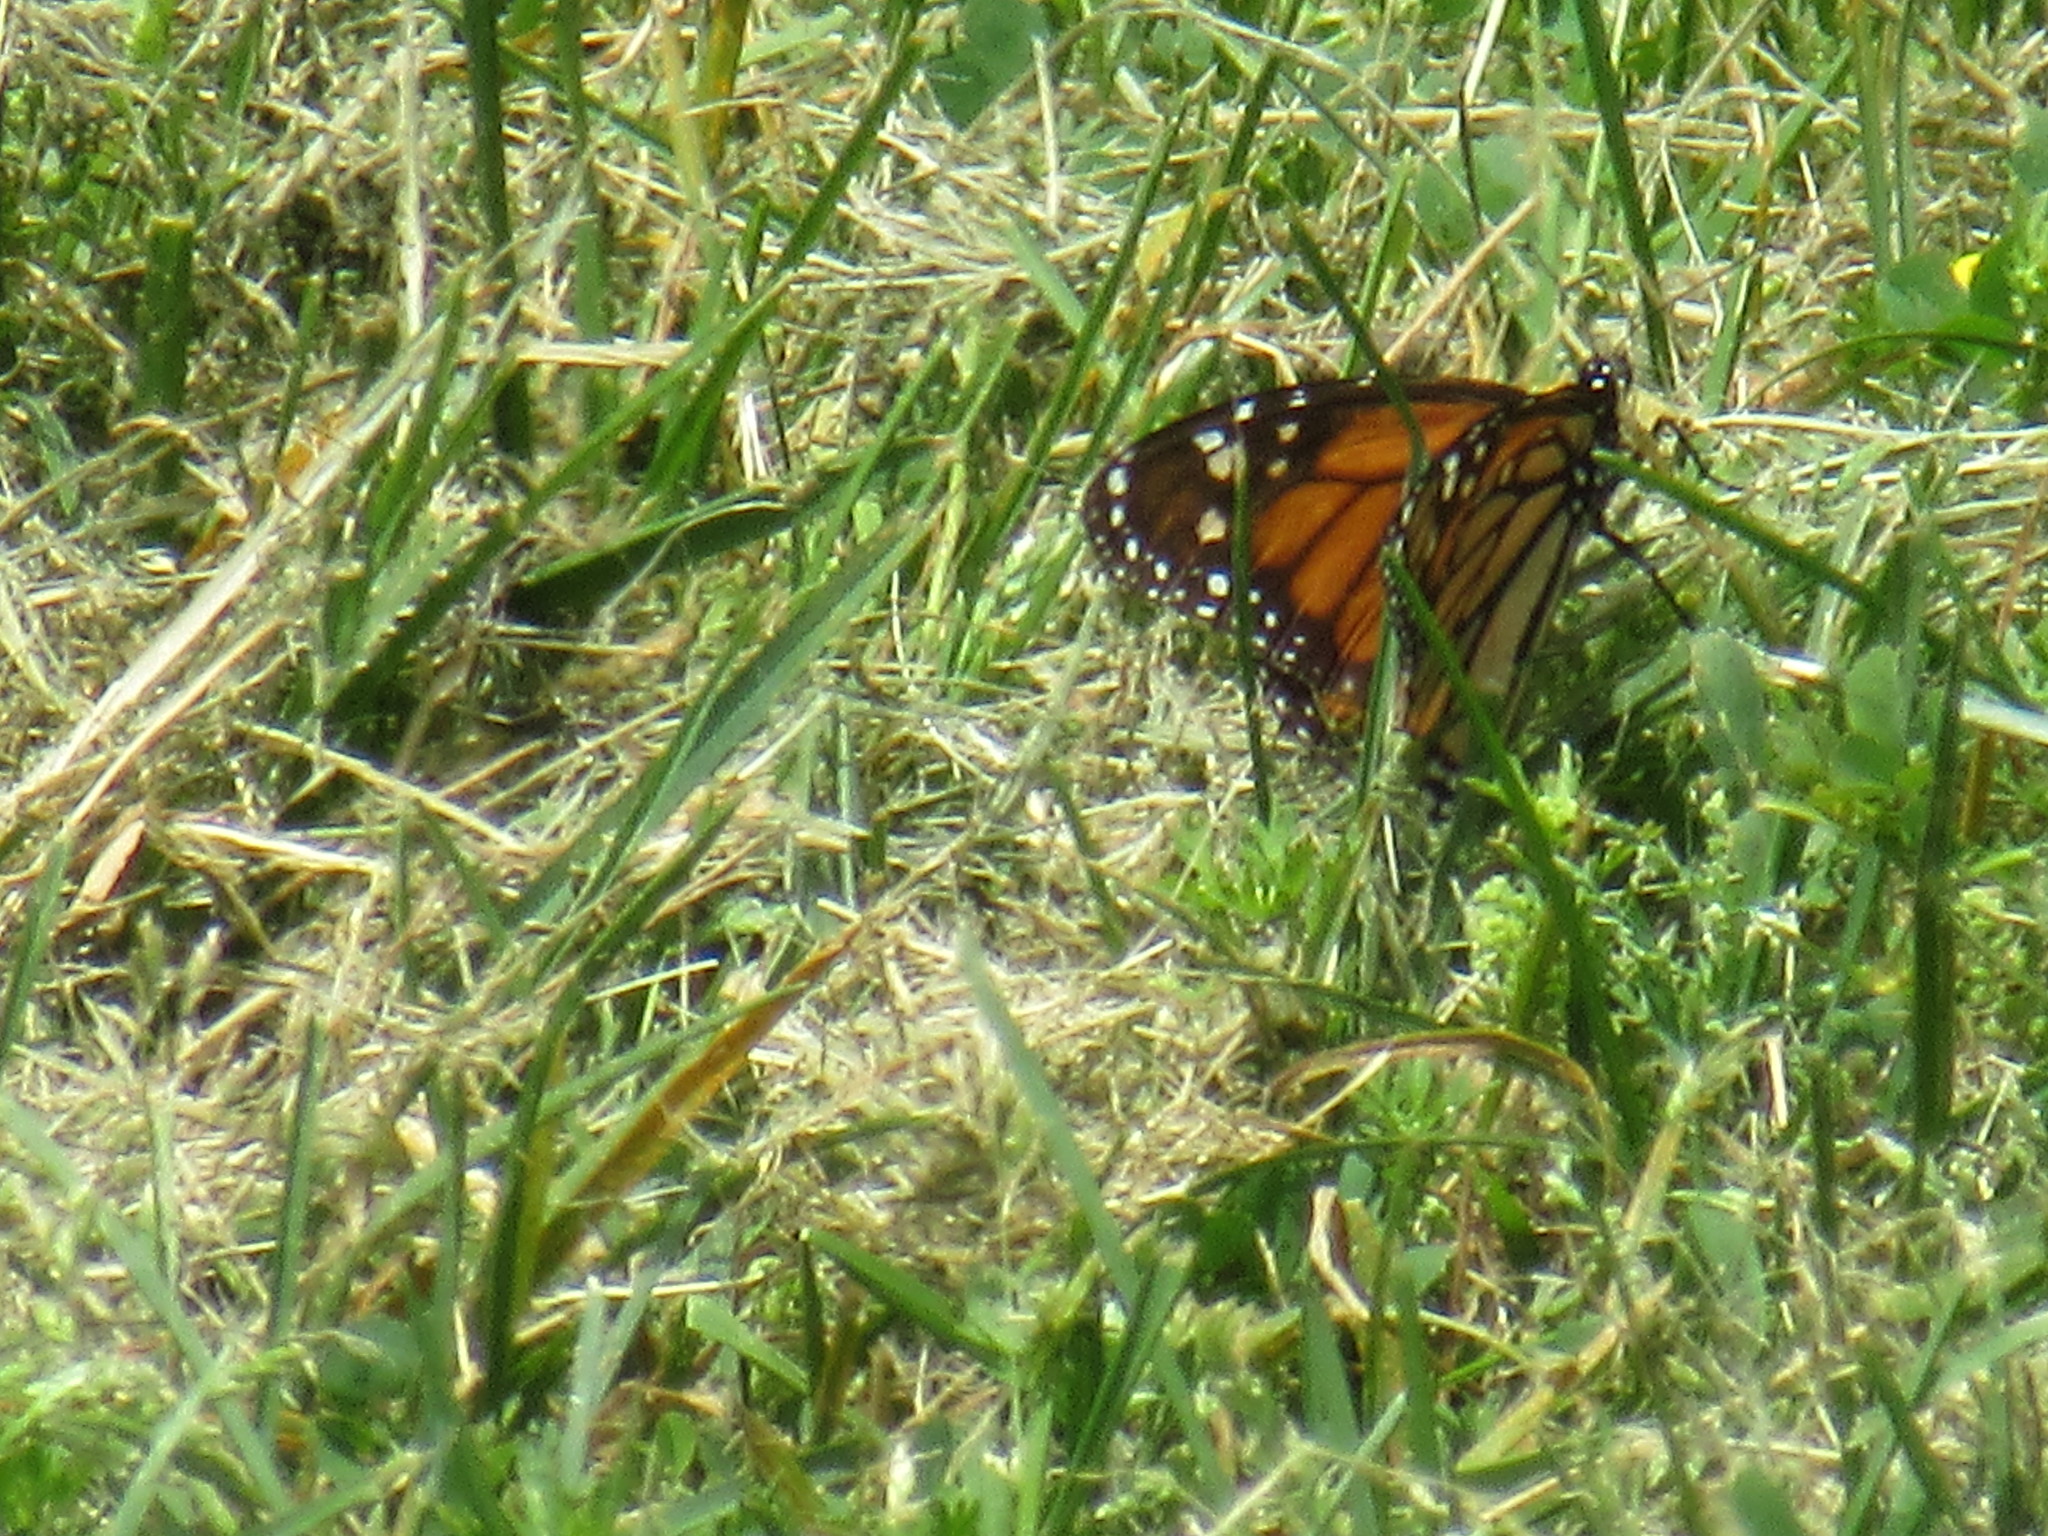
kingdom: Animalia
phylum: Arthropoda
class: Insecta
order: Lepidoptera
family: Nymphalidae
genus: Danaus
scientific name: Danaus plexippus
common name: Monarch
